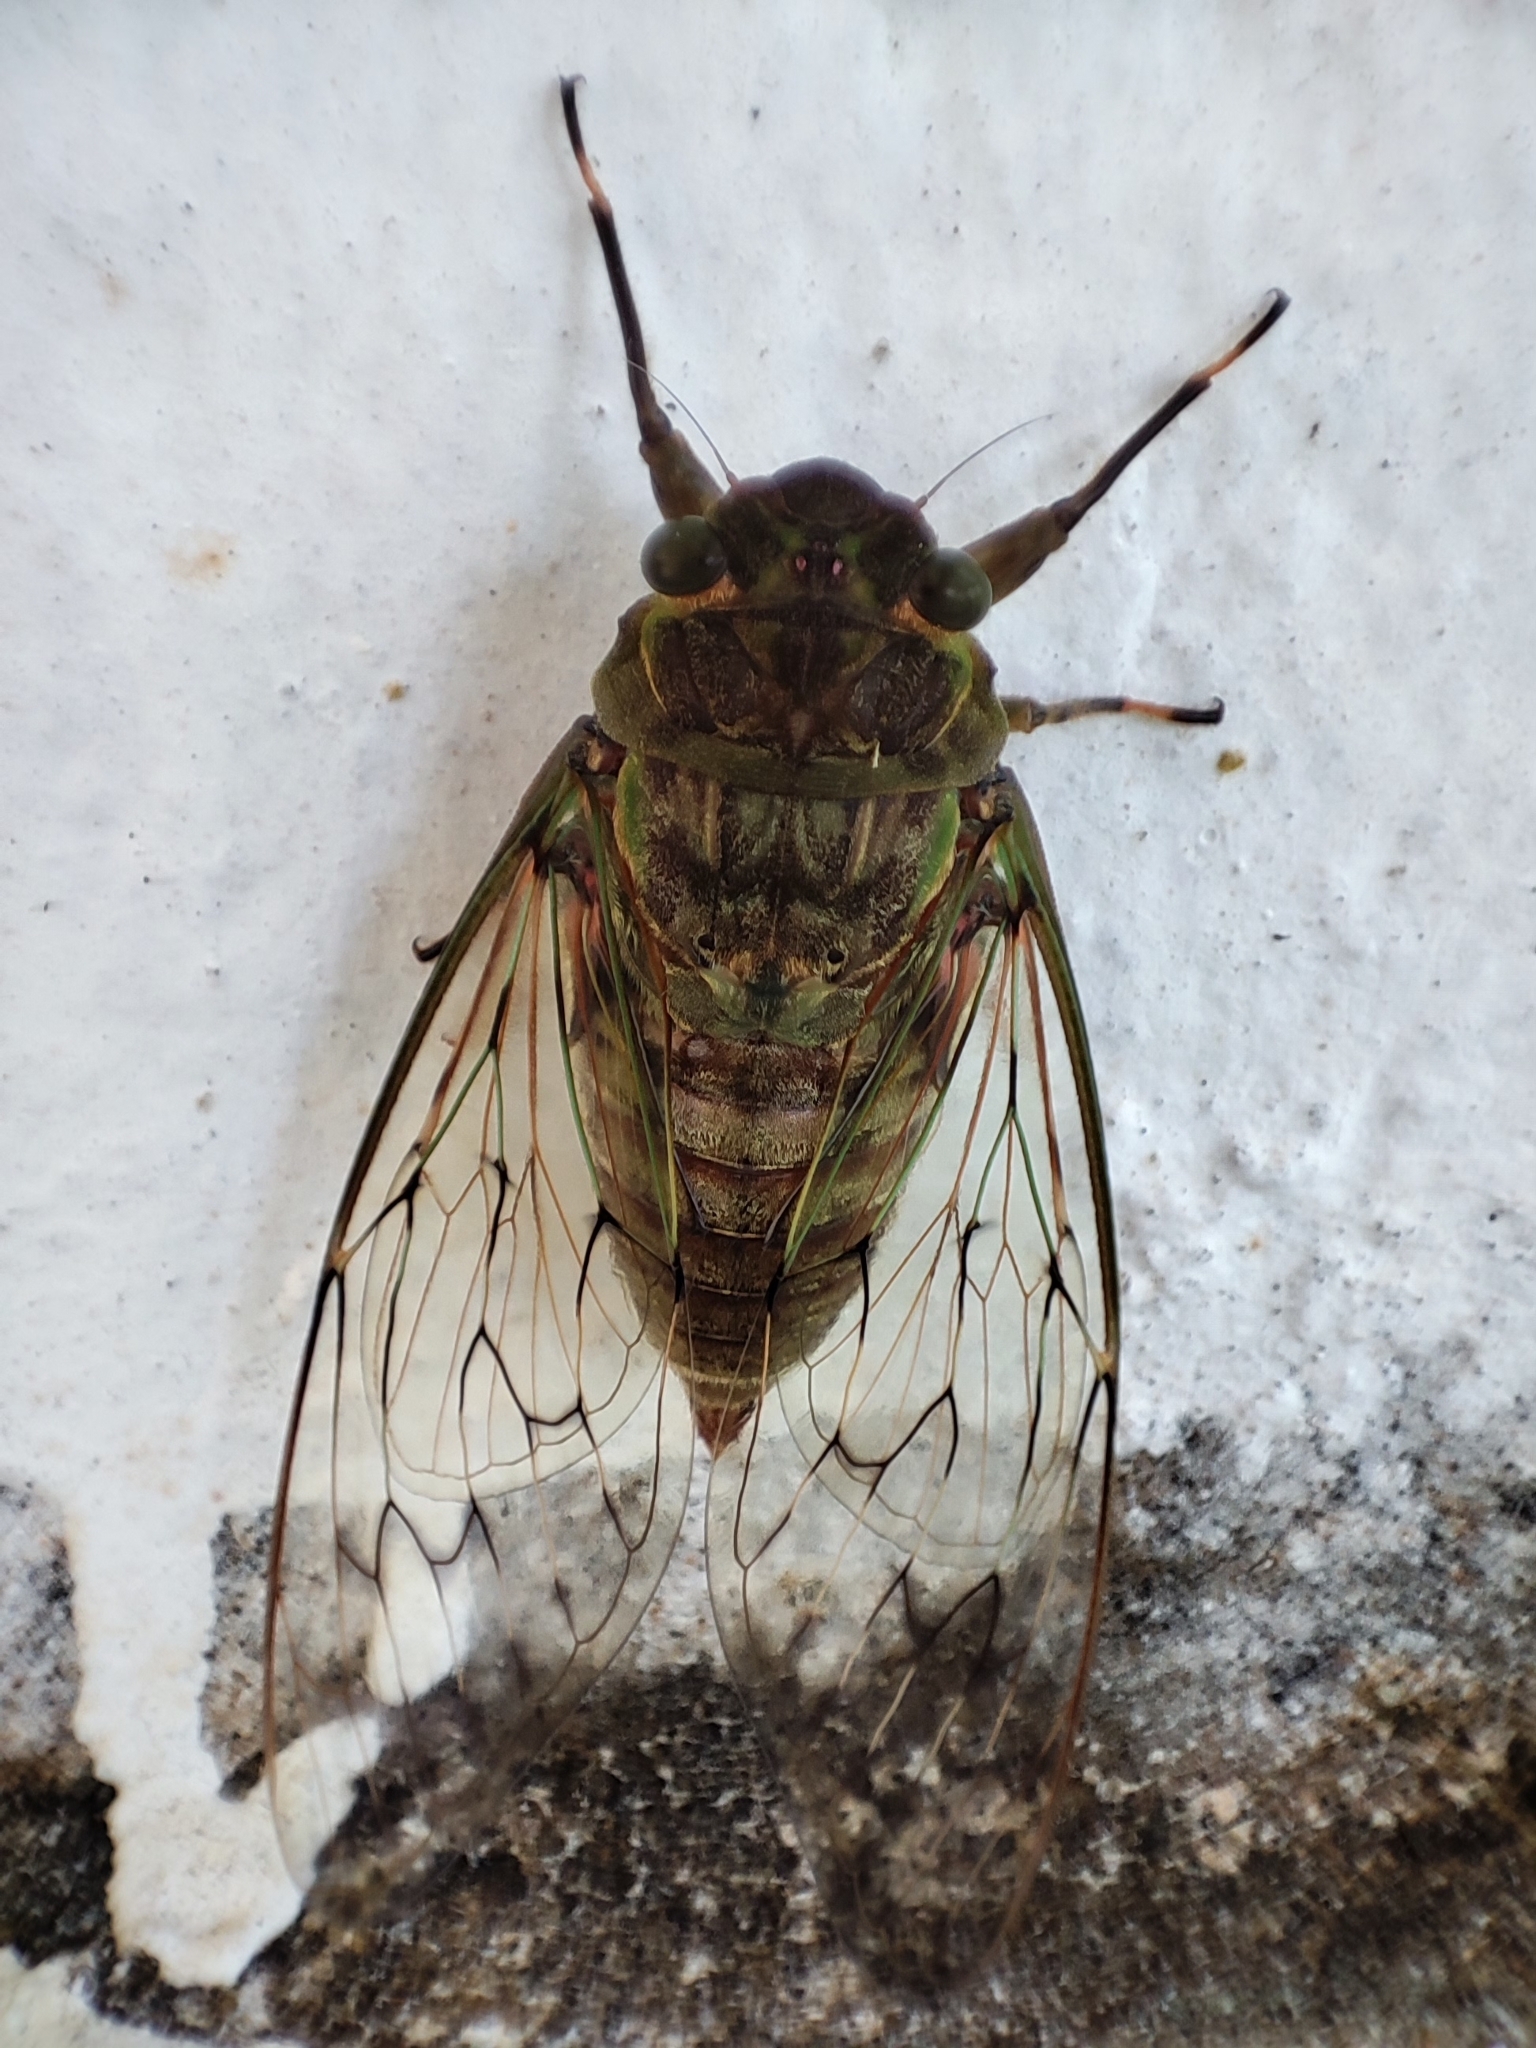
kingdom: Animalia
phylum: Arthropoda
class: Insecta
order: Hemiptera
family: Cicadidae
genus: Pomponia
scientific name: Pomponia backanensis
